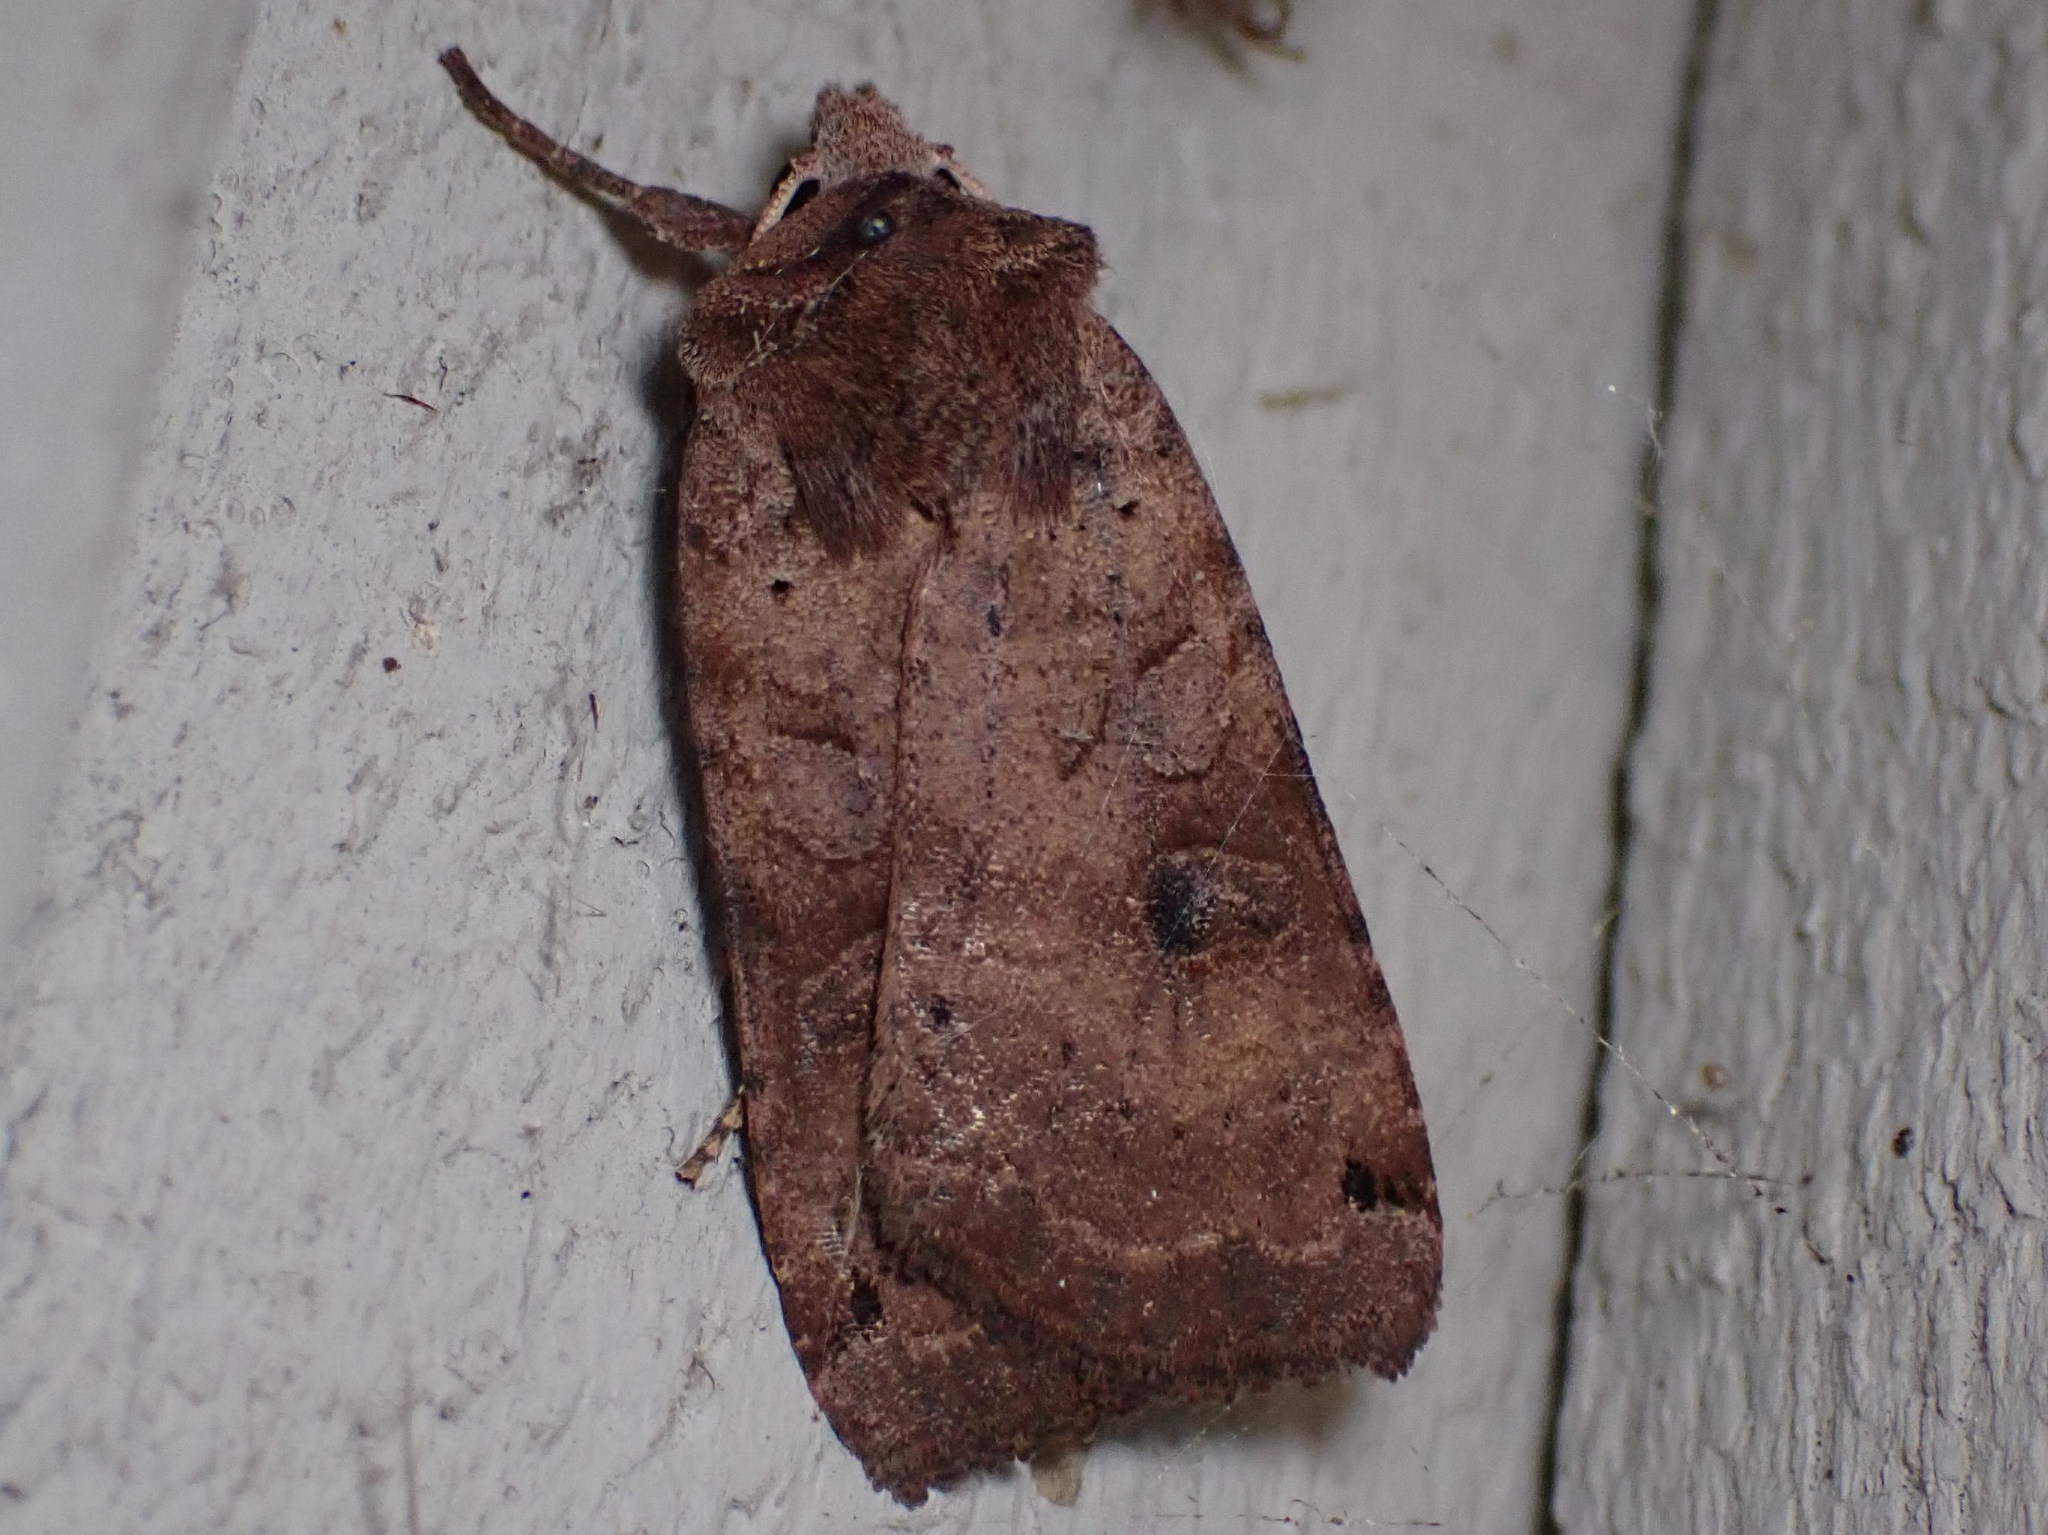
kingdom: Animalia
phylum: Arthropoda
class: Insecta
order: Lepidoptera
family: Noctuidae
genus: Xestia
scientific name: Xestia smithii
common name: Smith's dart
